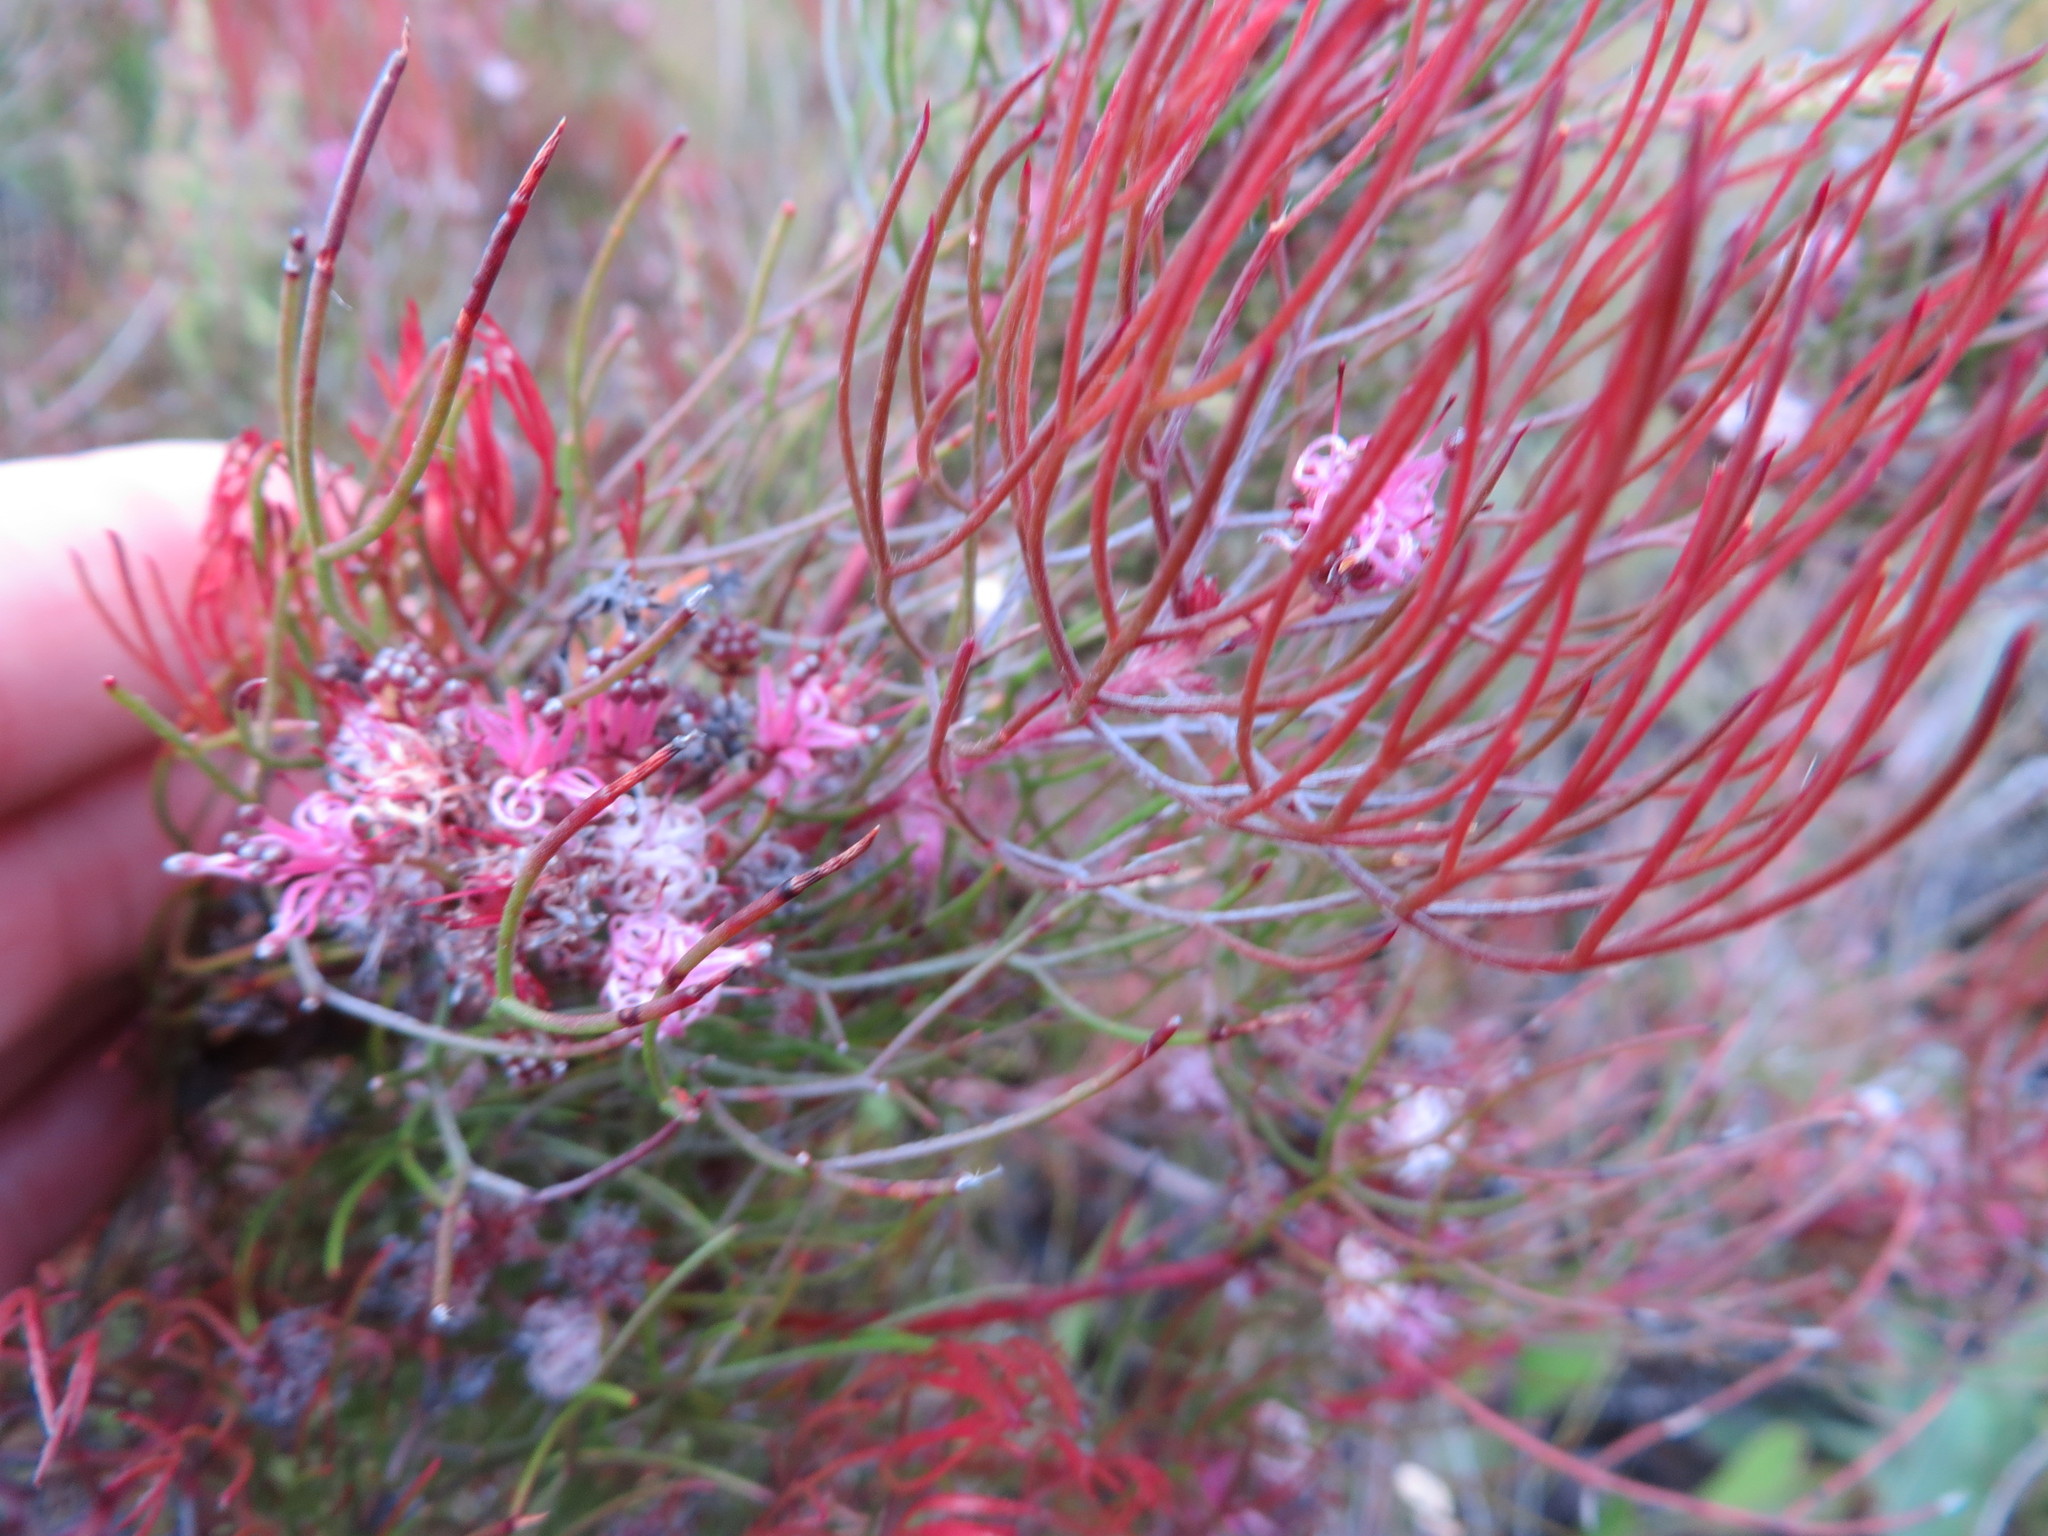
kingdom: Plantae
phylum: Tracheophyta
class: Magnoliopsida
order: Proteales
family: Proteaceae
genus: Serruria
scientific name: Serruria fasciflora
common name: Common pin spiderhead
